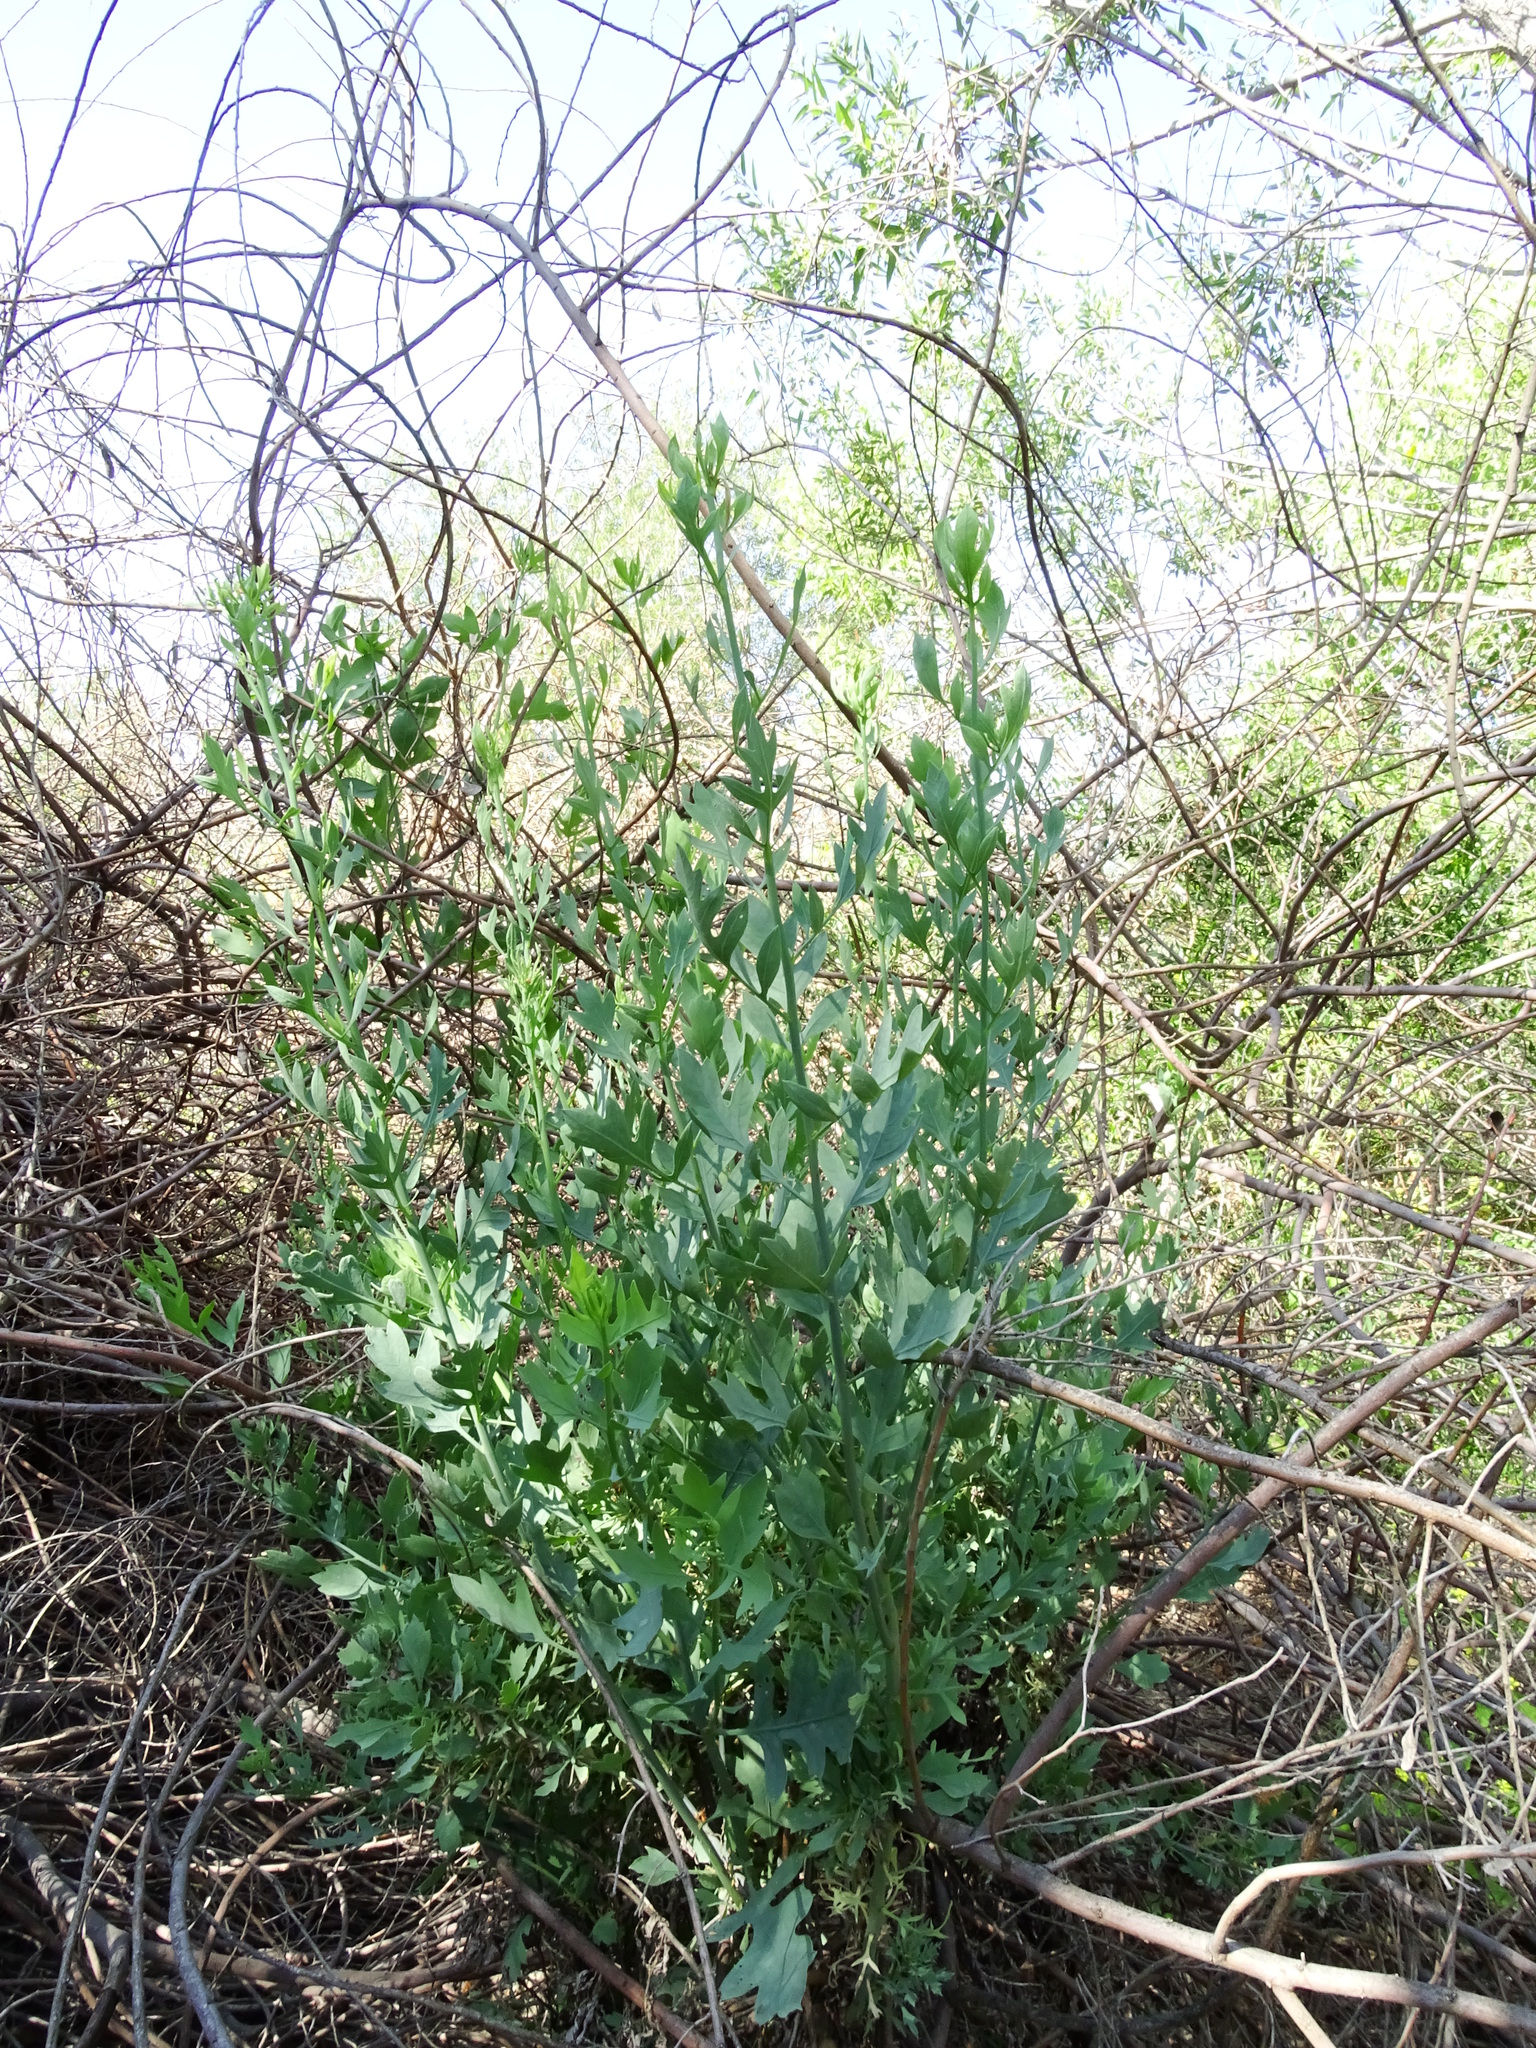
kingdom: Plantae
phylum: Tracheophyta
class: Magnoliopsida
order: Ranunculales
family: Papaveraceae
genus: Romneya
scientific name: Romneya coulteri
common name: California tree-poppy
